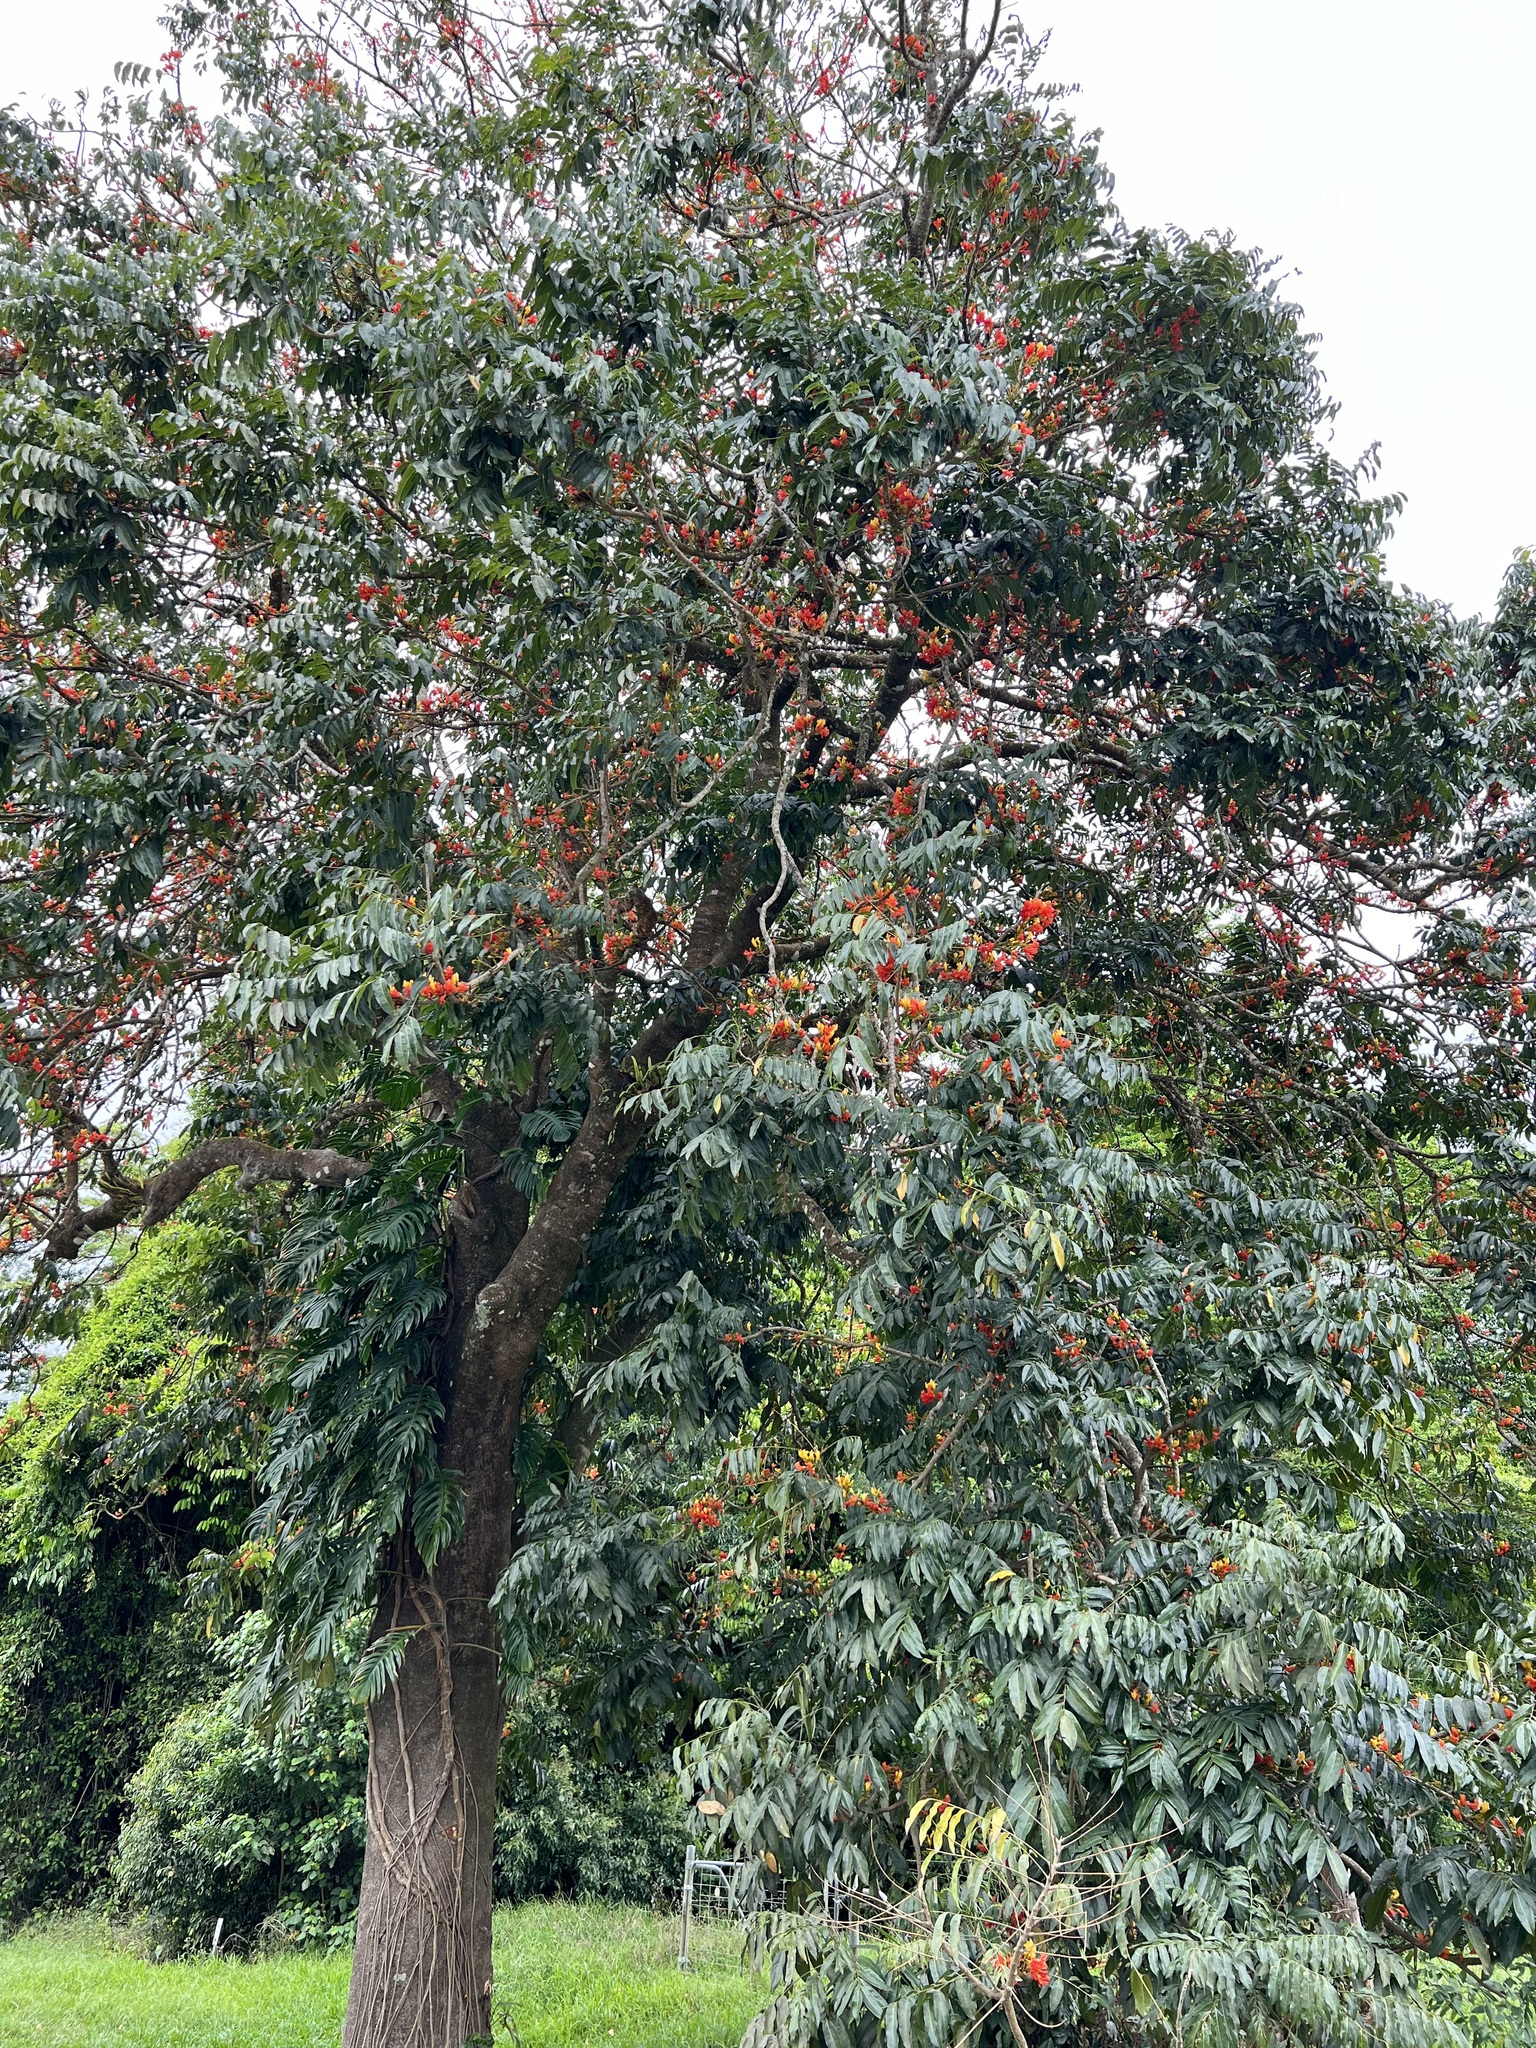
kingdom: Plantae
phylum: Tracheophyta
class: Magnoliopsida
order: Fabales
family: Fabaceae
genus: Castanospermum
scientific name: Castanospermum australe
